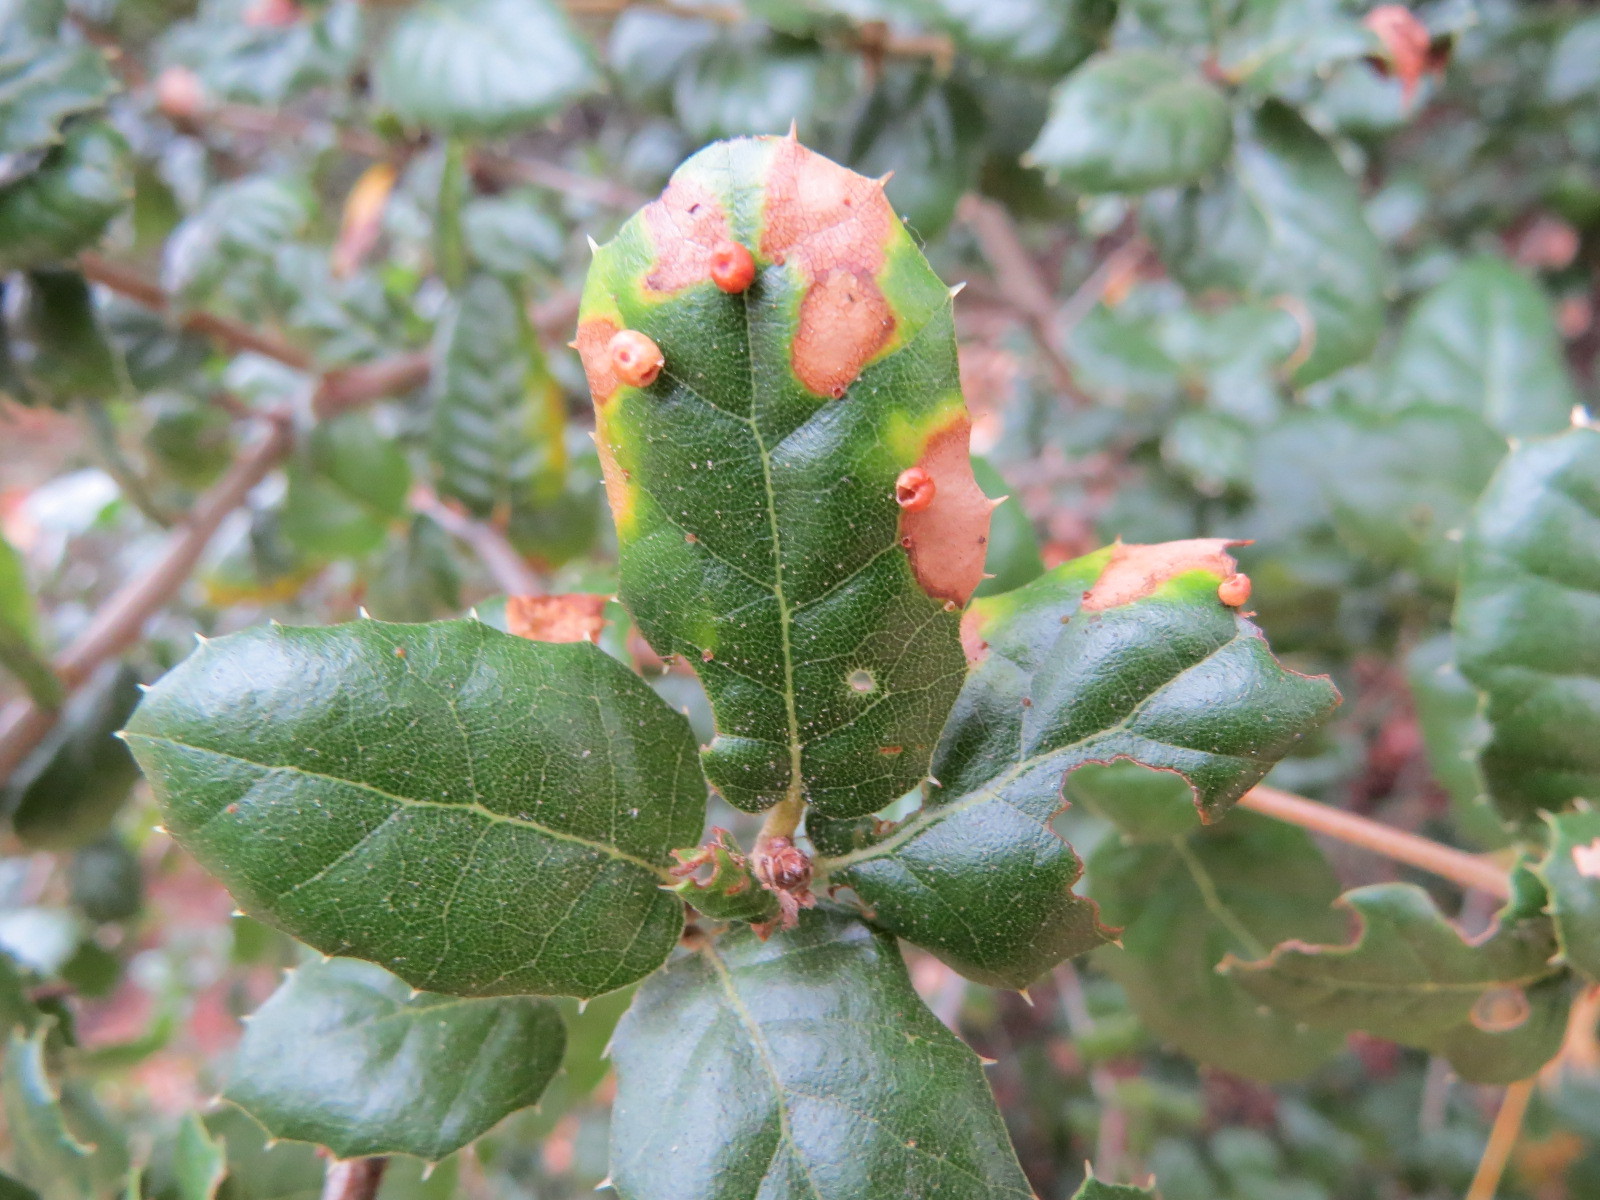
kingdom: Animalia
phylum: Arthropoda
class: Insecta
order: Hymenoptera
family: Cynipidae
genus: Dryocosmus
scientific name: Dryocosmus
